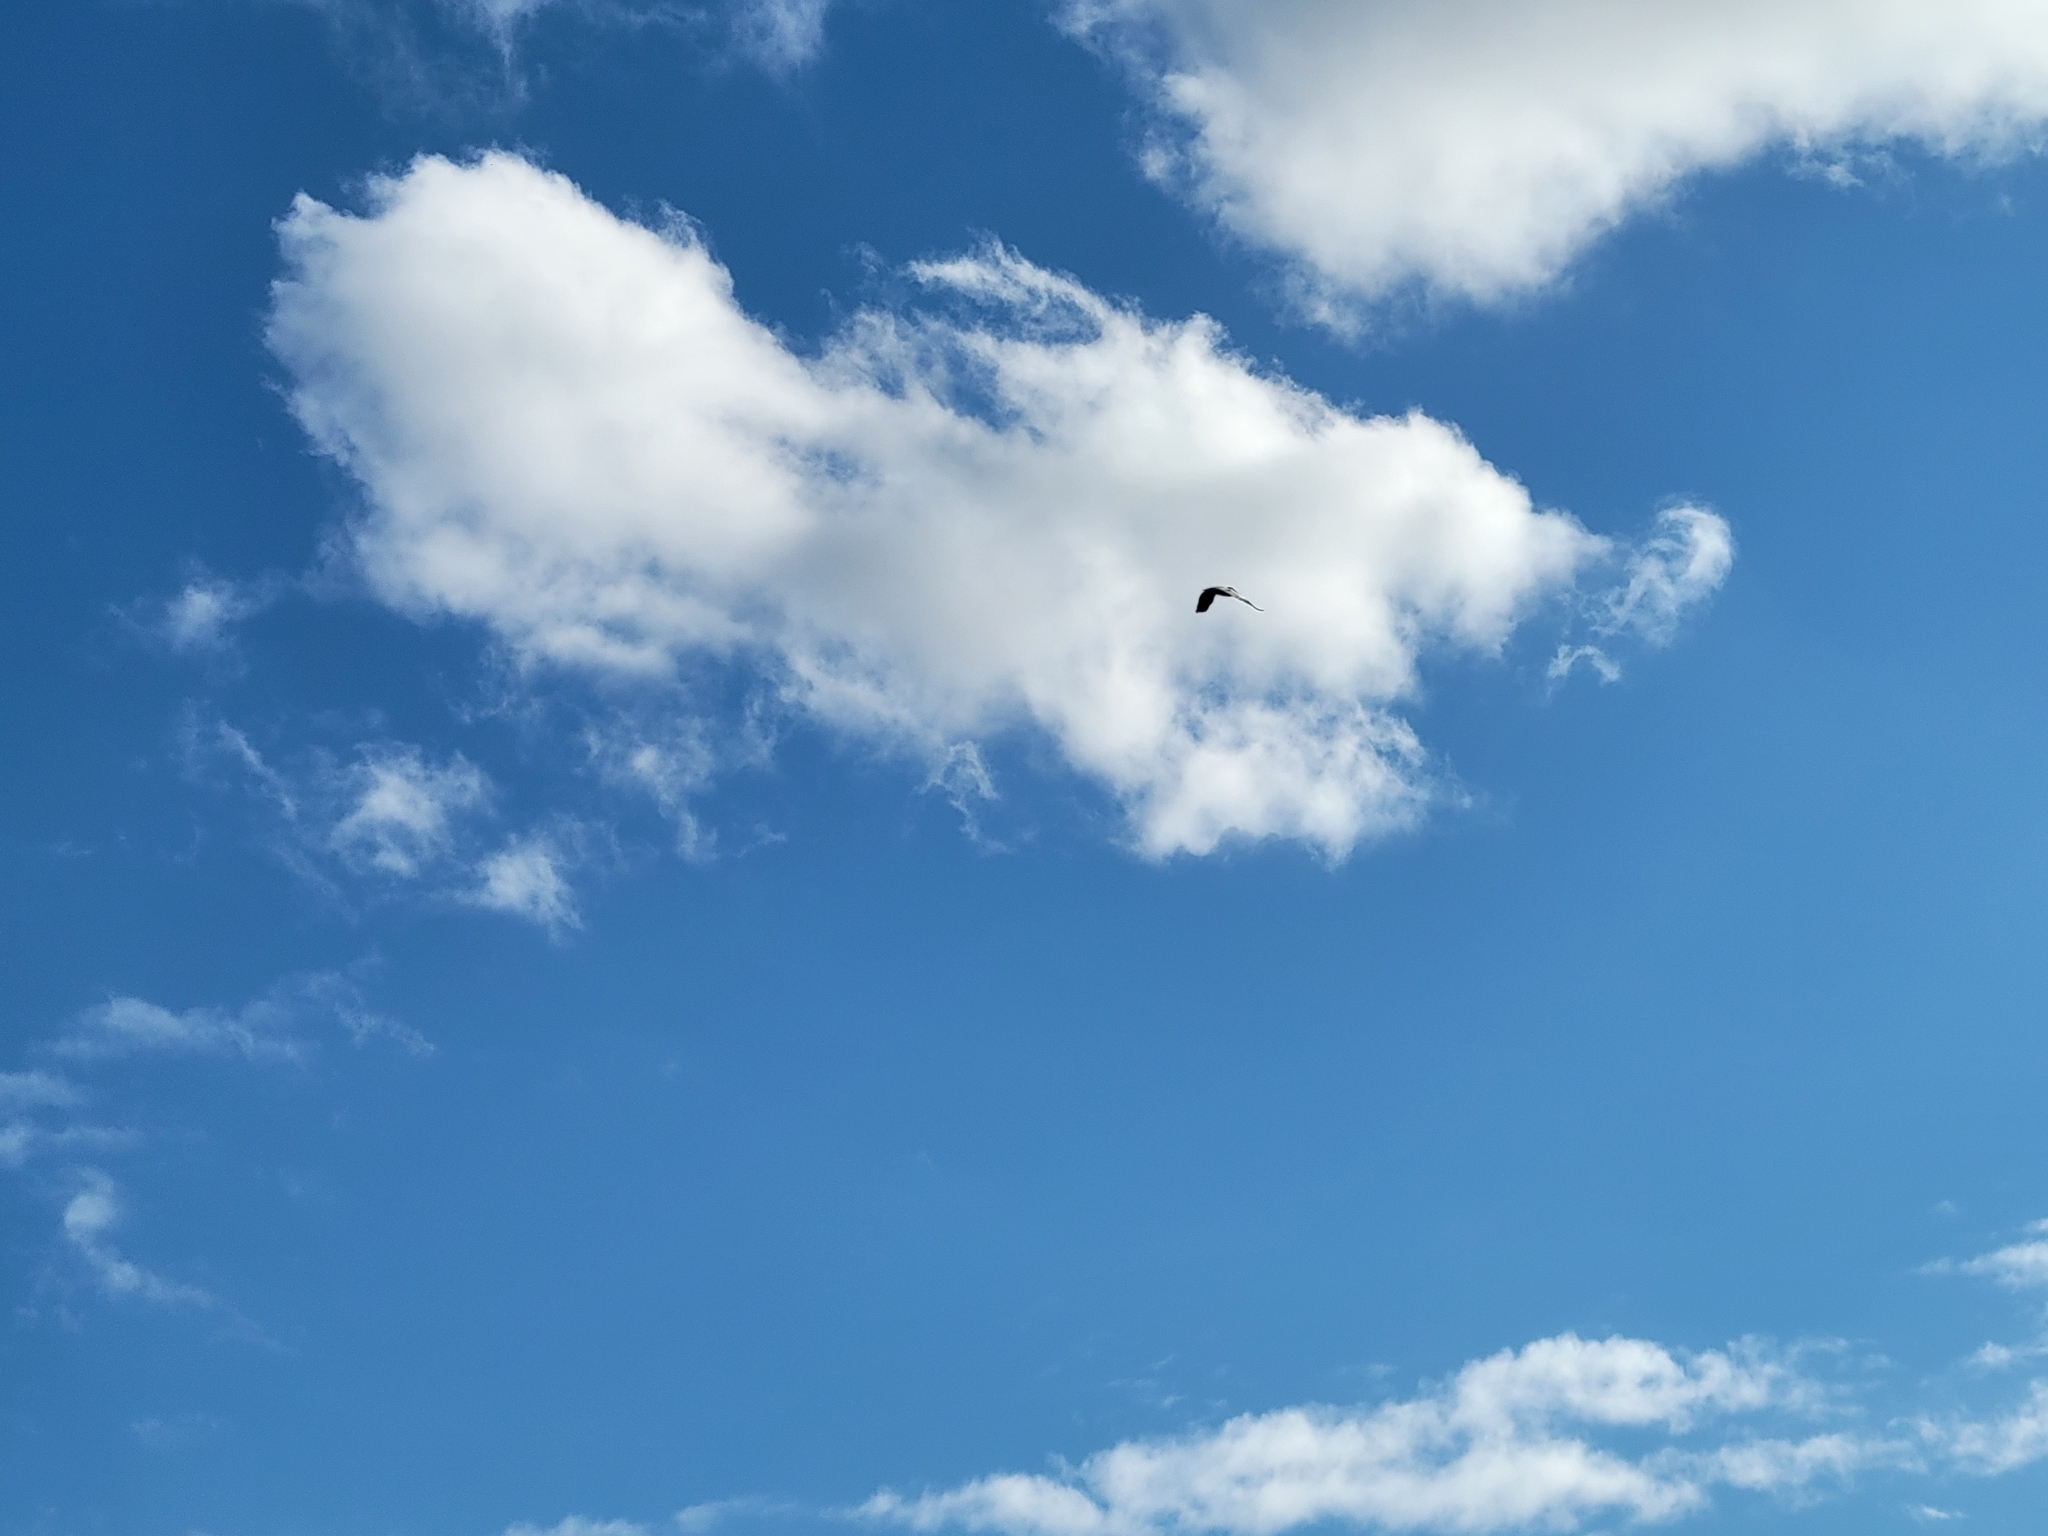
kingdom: Animalia
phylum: Chordata
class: Aves
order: Pelecaniformes
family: Pelecanidae
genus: Pelecanus
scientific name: Pelecanus occidentalis
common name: Brown pelican
